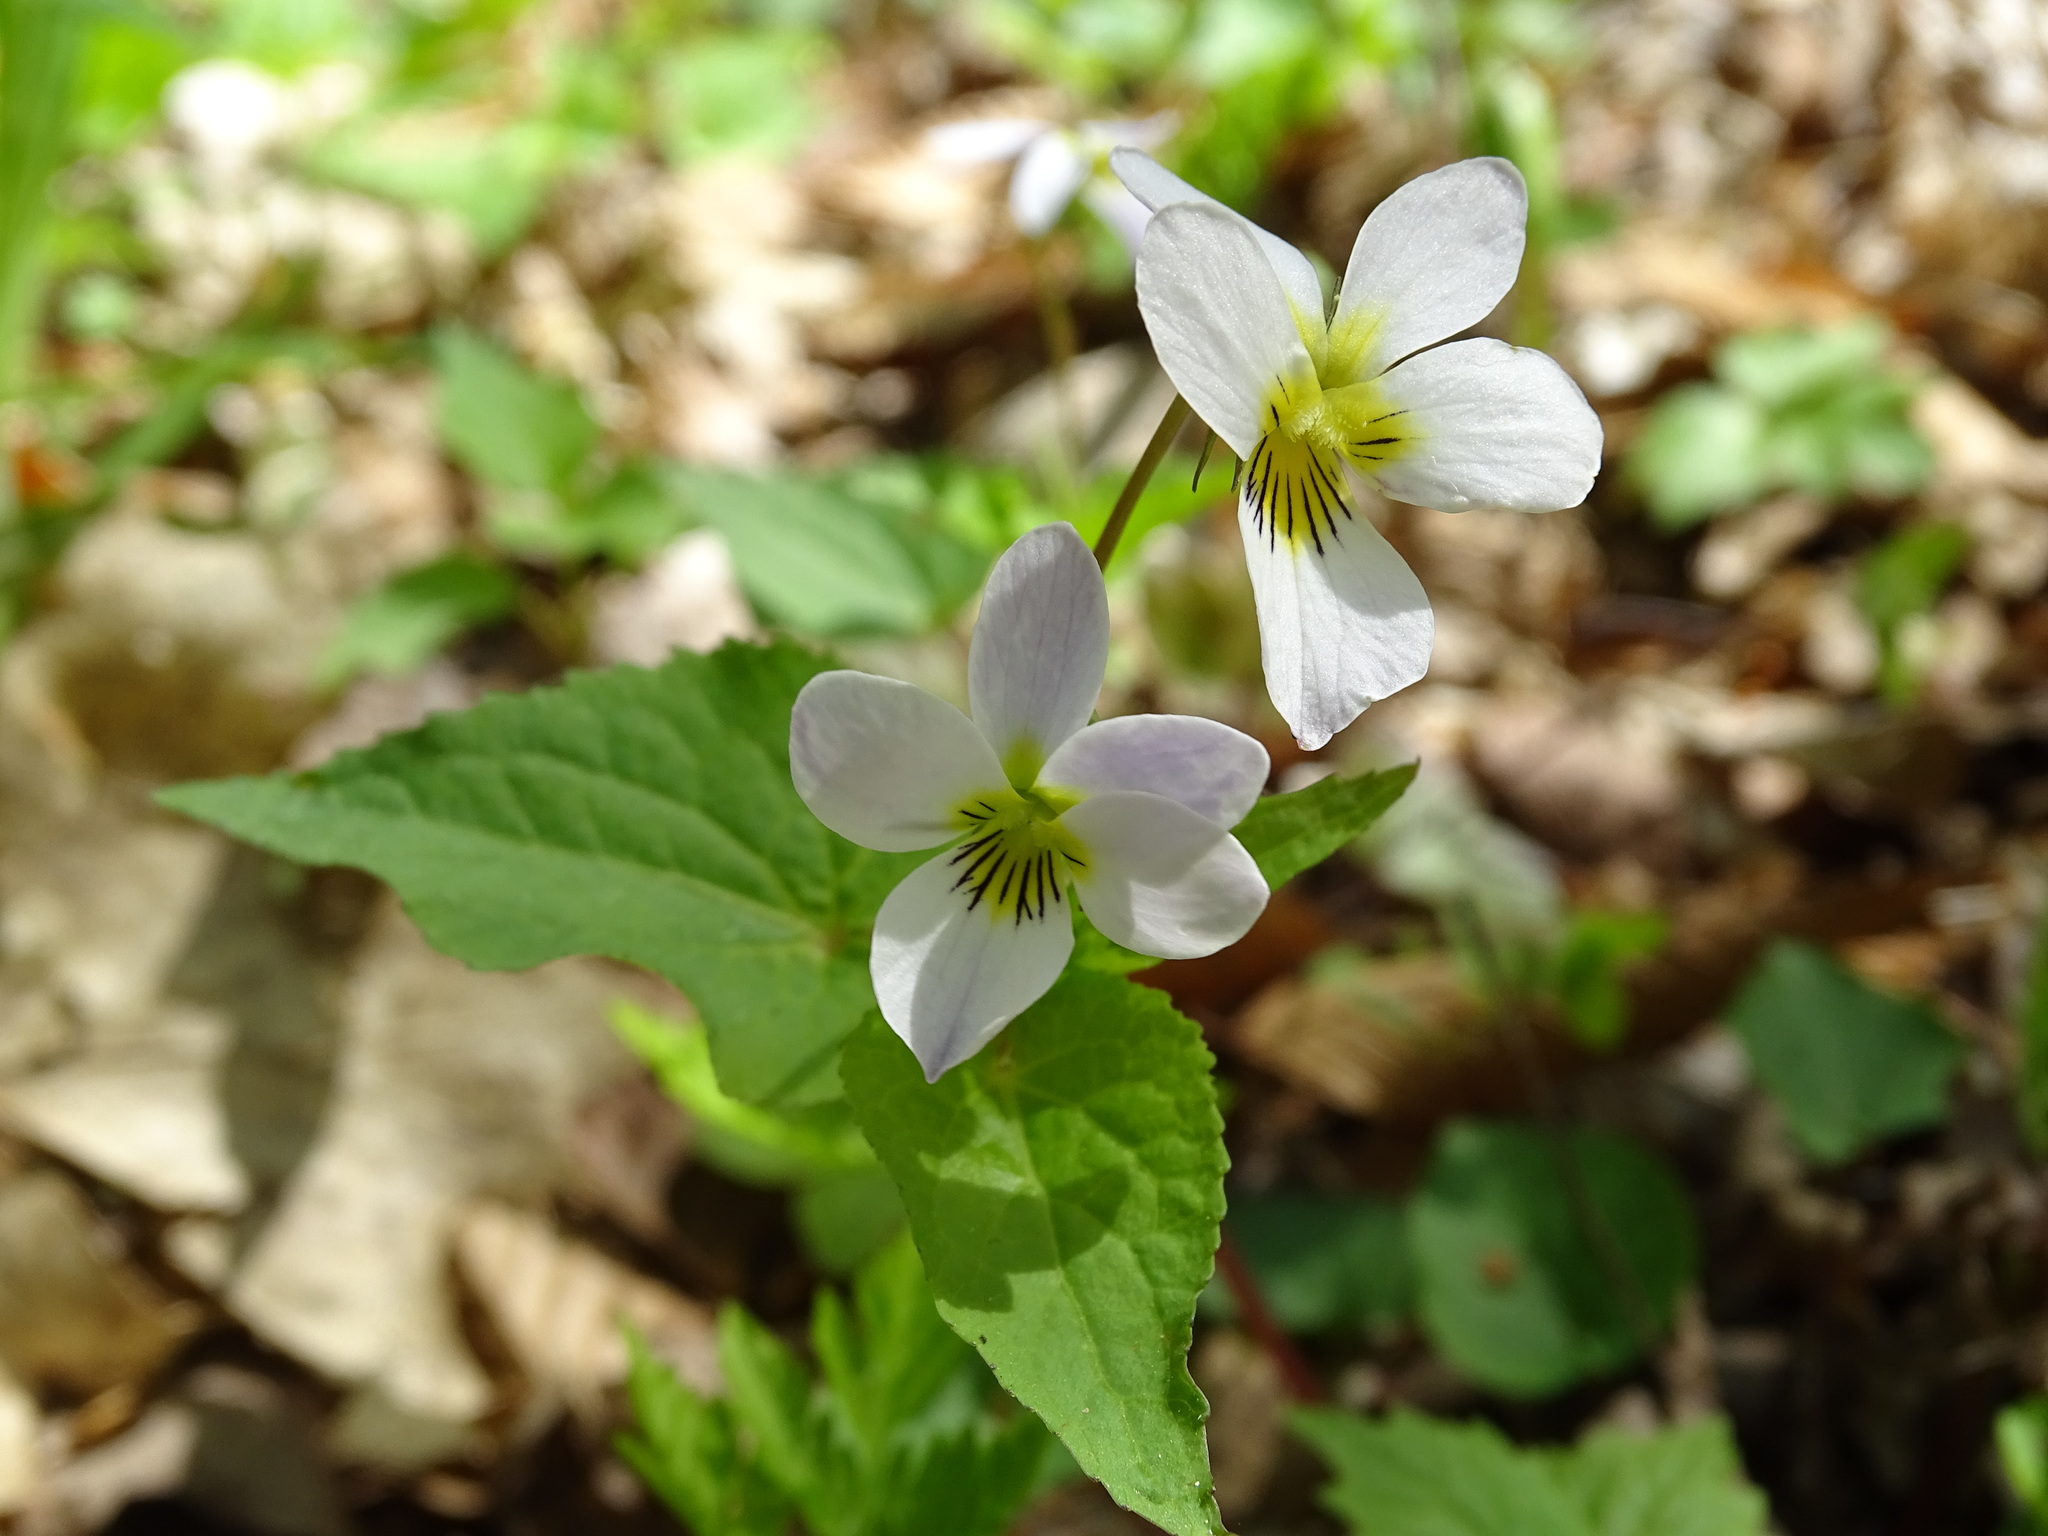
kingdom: Plantae
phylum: Tracheophyta
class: Magnoliopsida
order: Malpighiales
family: Violaceae
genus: Viola
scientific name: Viola canadensis
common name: Canada violet
